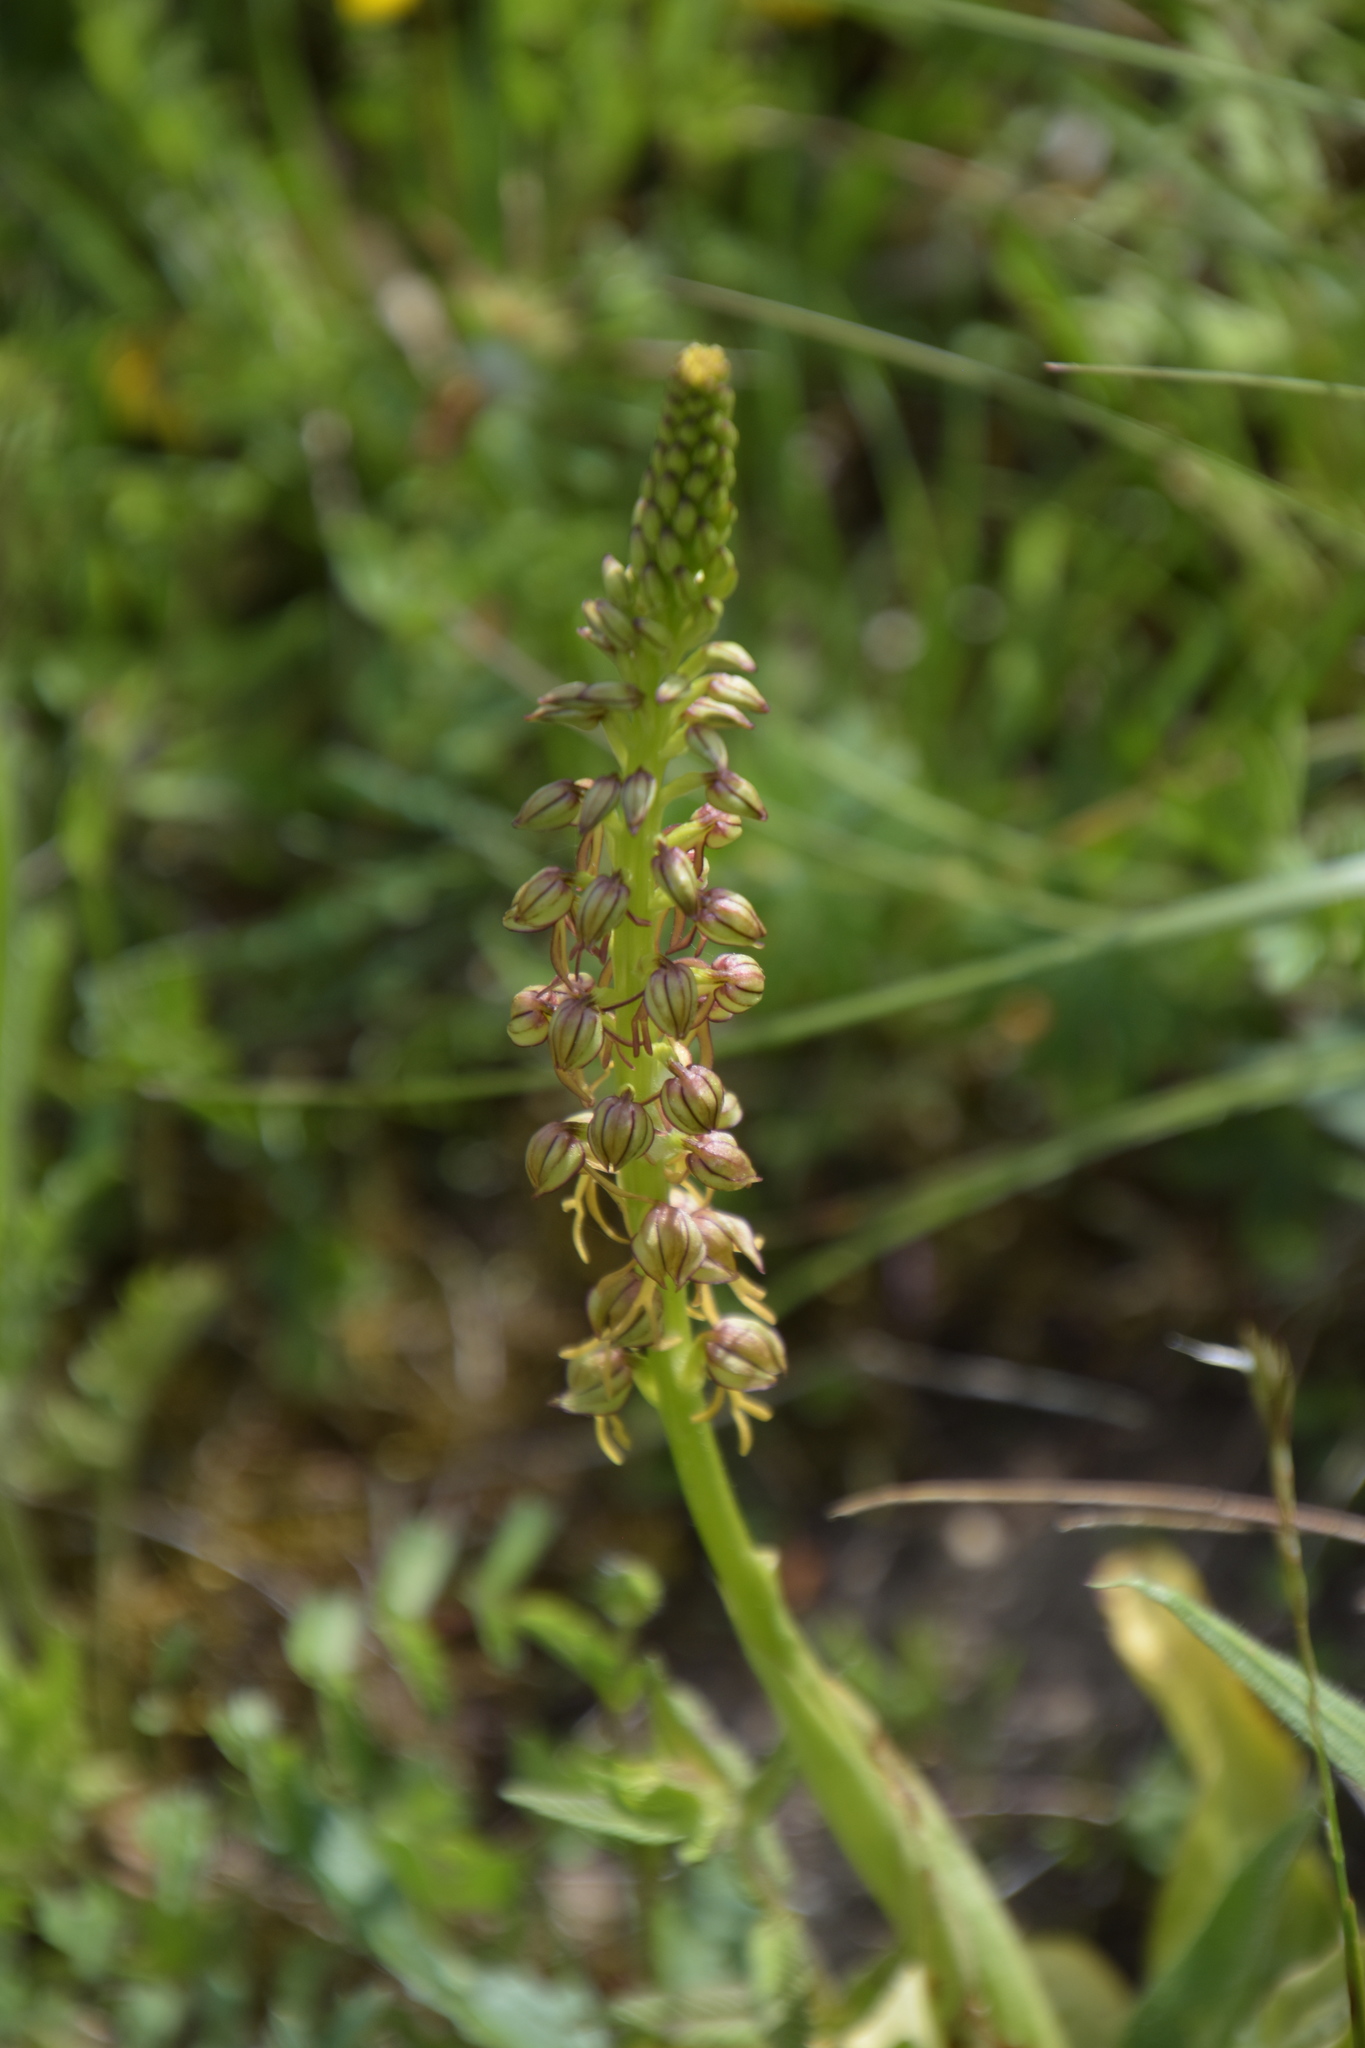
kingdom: Plantae
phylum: Tracheophyta
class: Liliopsida
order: Asparagales
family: Orchidaceae
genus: Orchis
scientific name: Orchis anthropophora
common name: Man orchid
